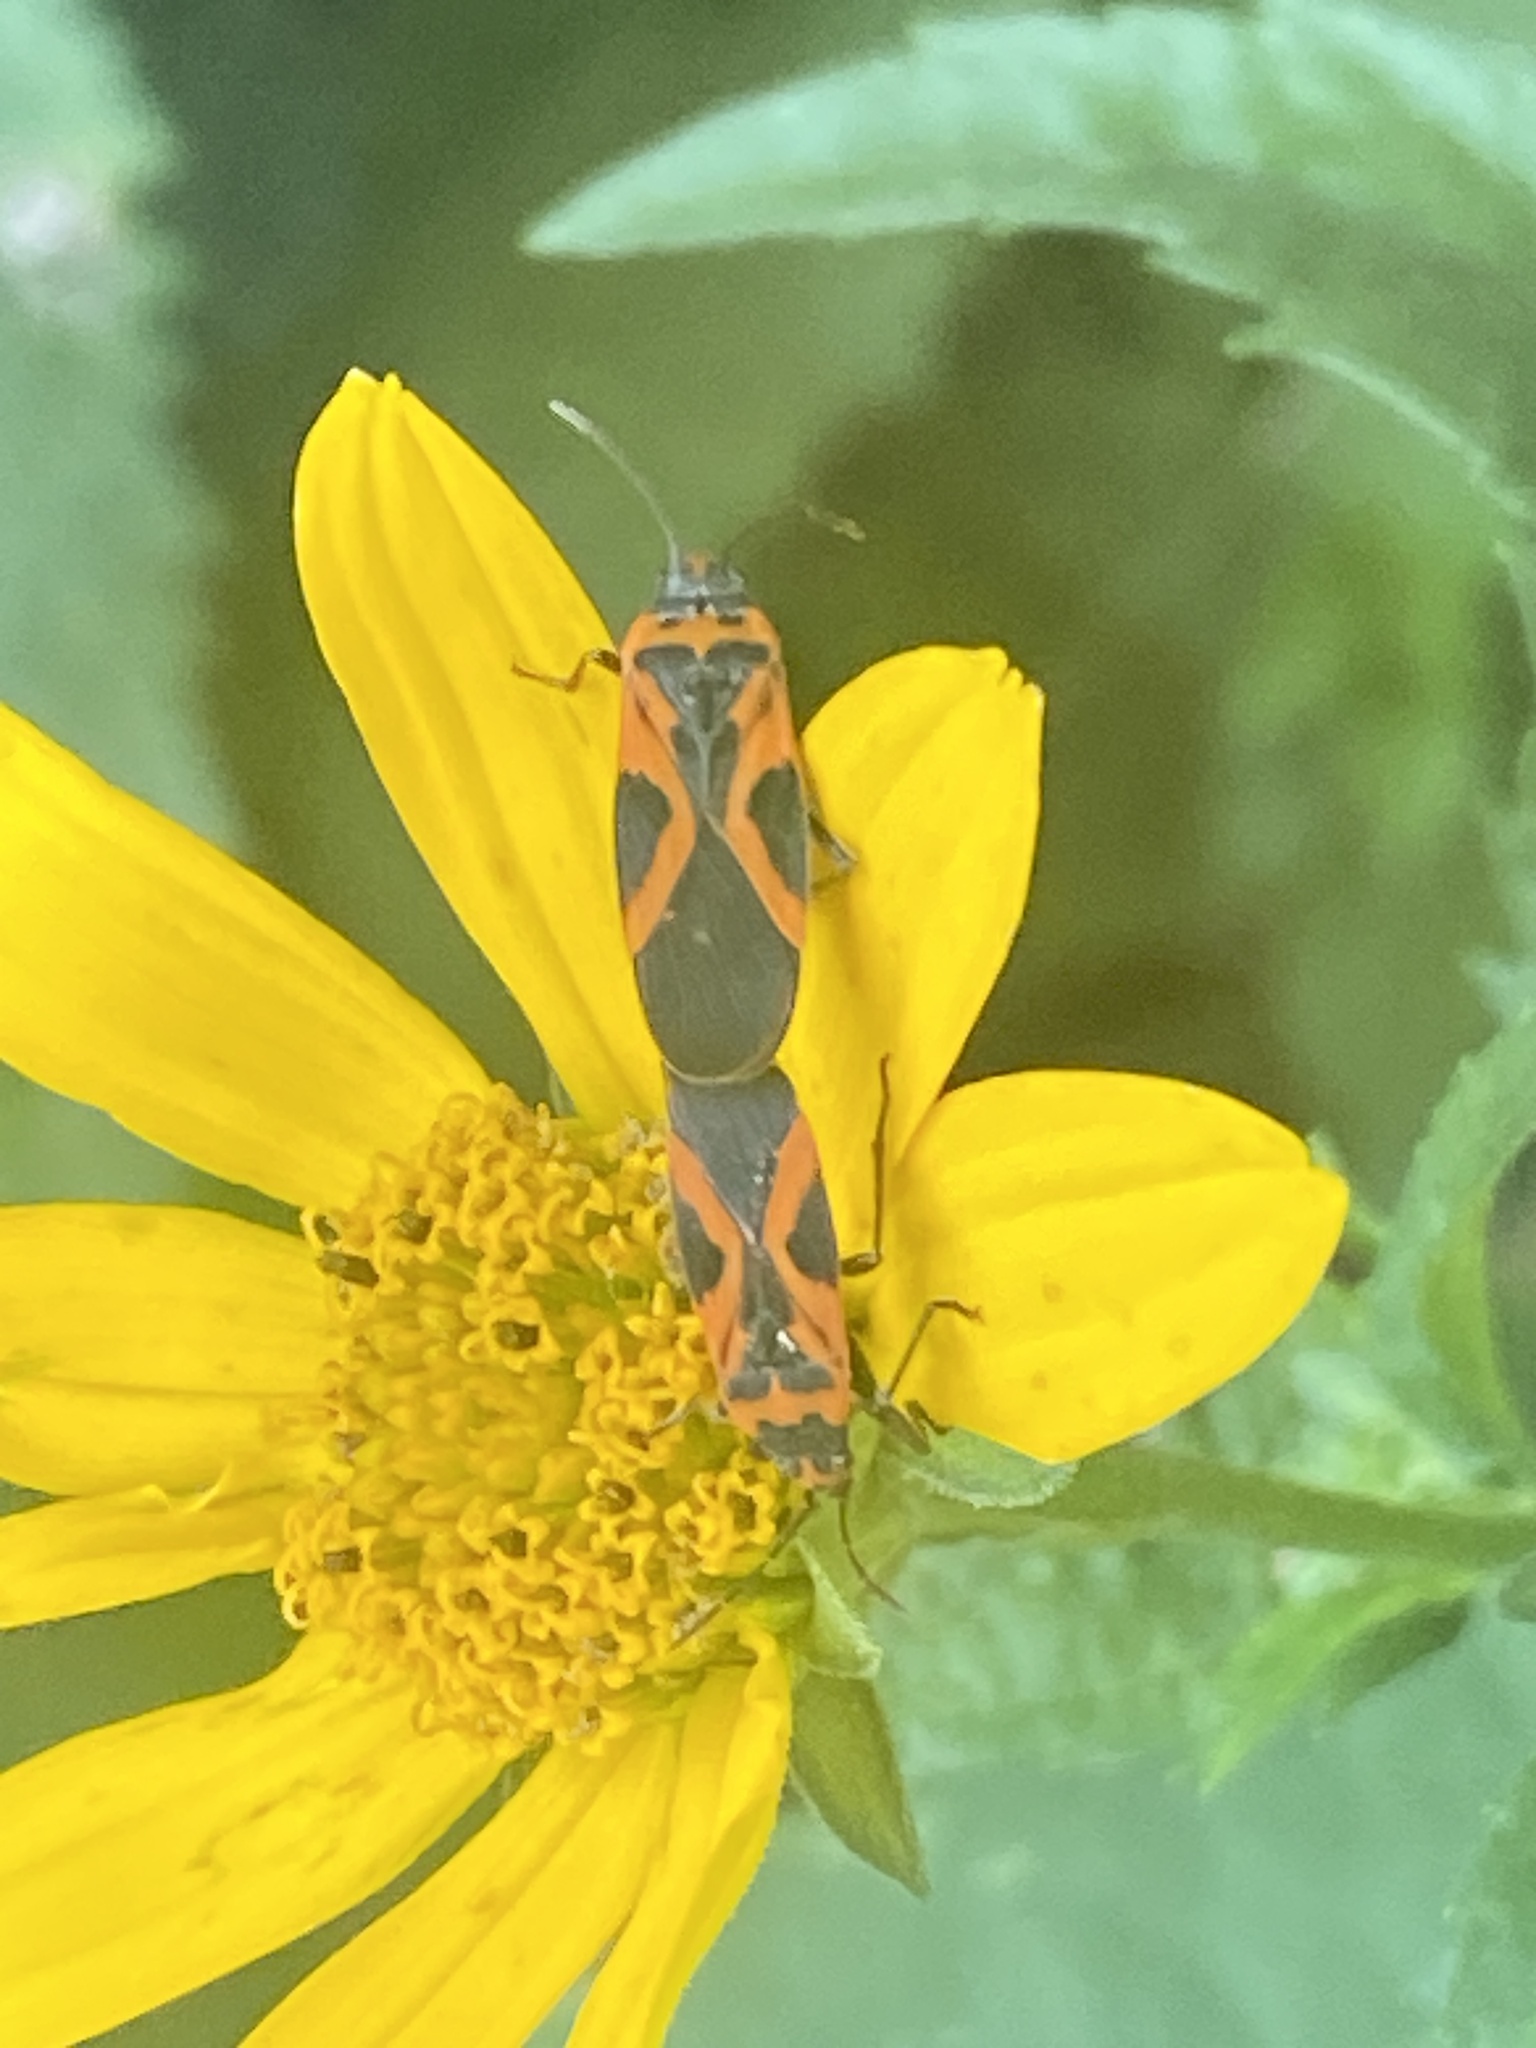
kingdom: Animalia
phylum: Arthropoda
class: Insecta
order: Hemiptera
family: Lygaeidae
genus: Lygaeus
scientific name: Lygaeus turcicus
